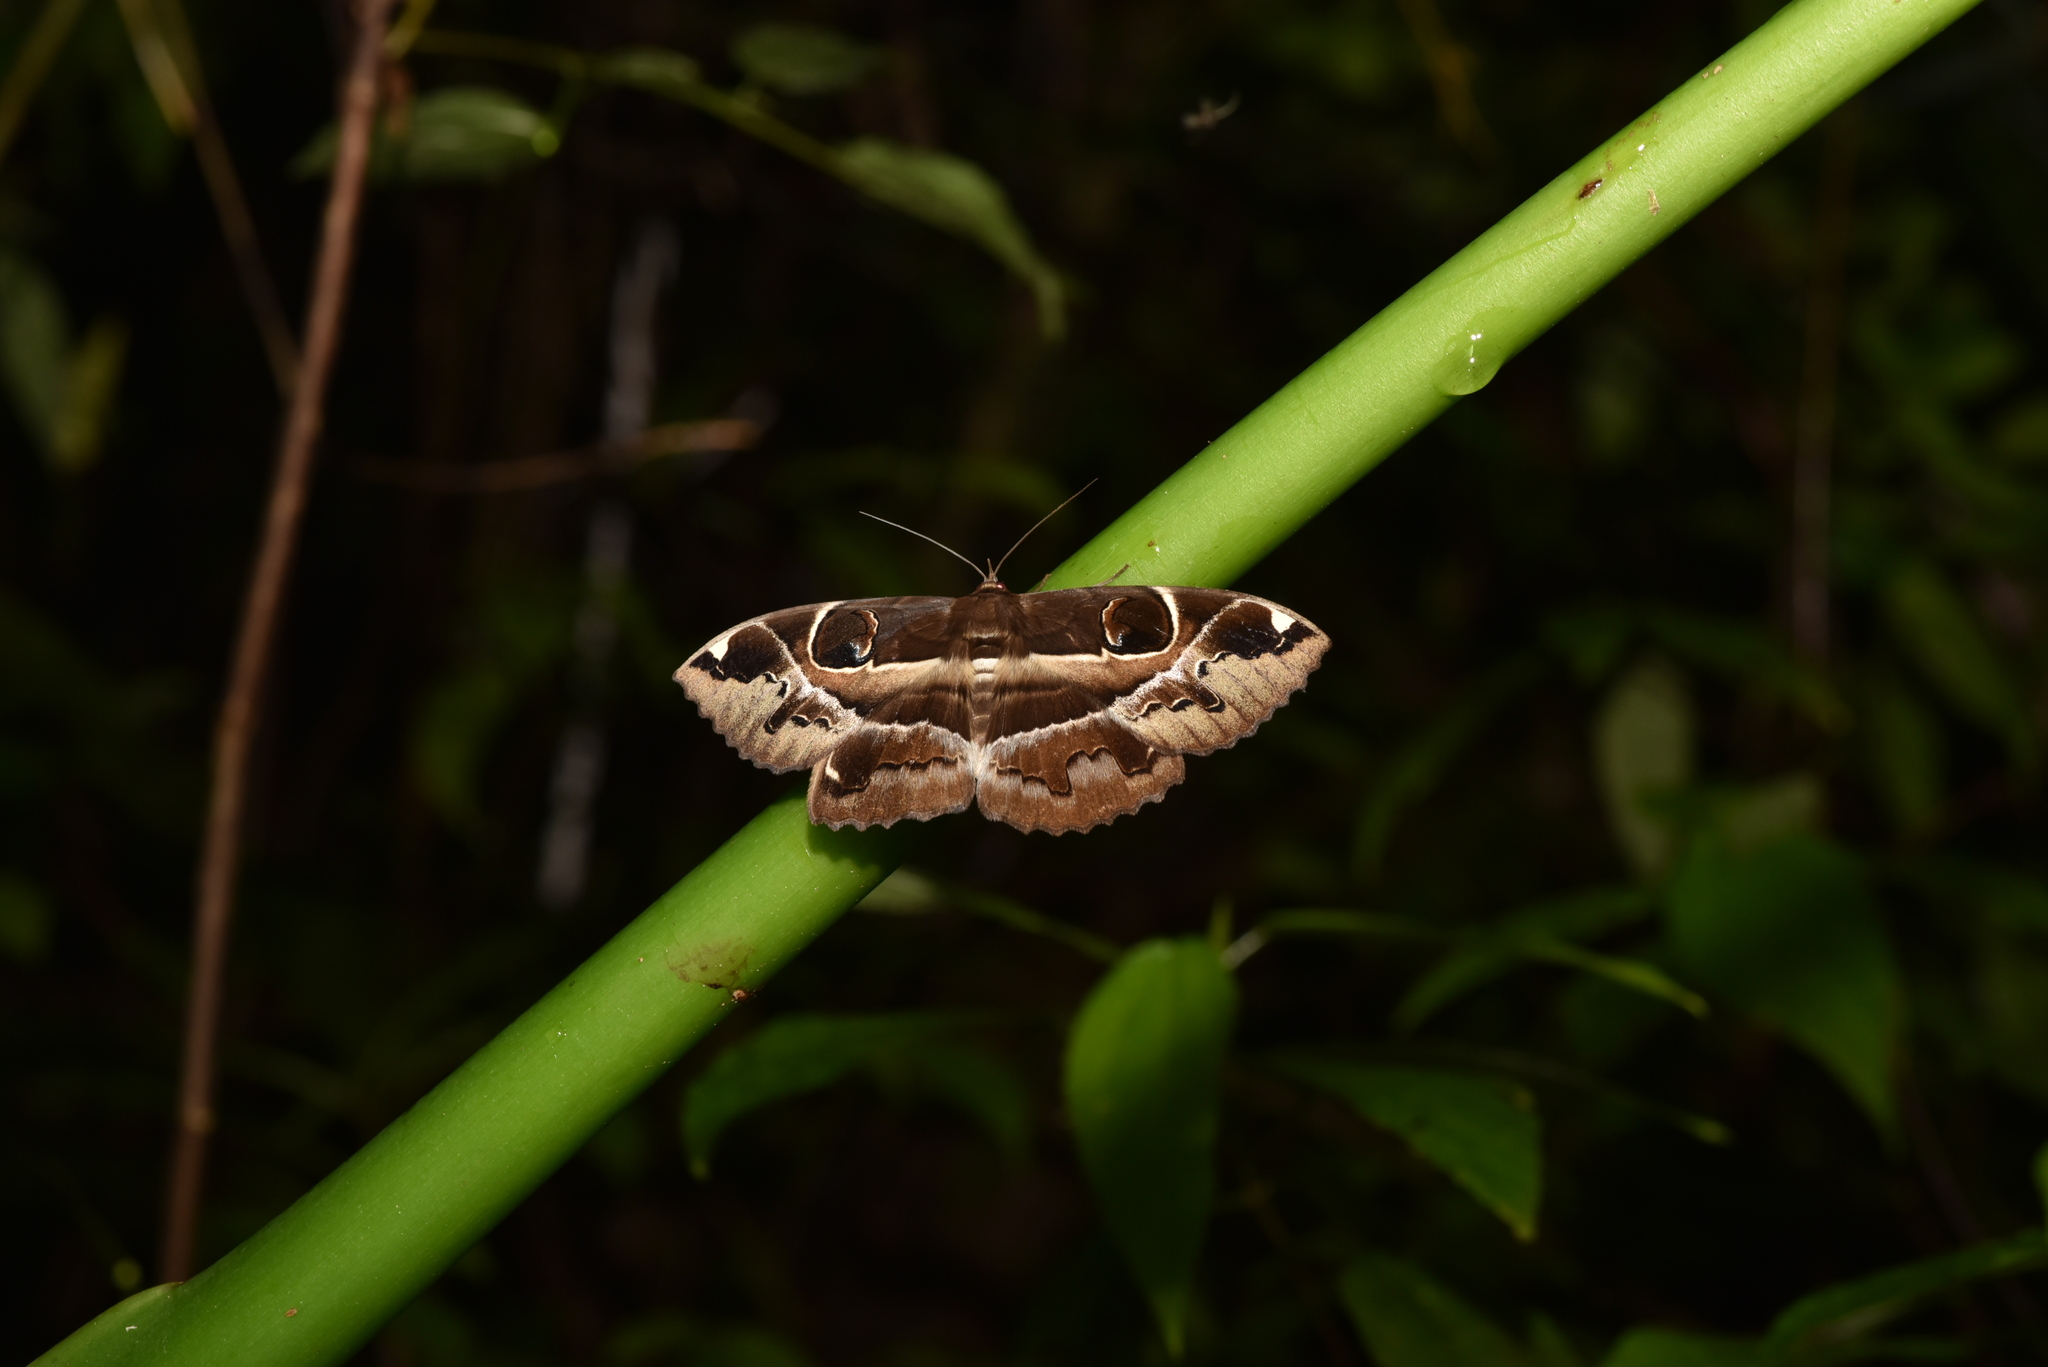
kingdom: Animalia
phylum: Arthropoda
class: Insecta
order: Lepidoptera
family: Erebidae
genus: Erebus
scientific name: Erebus ephesperis
